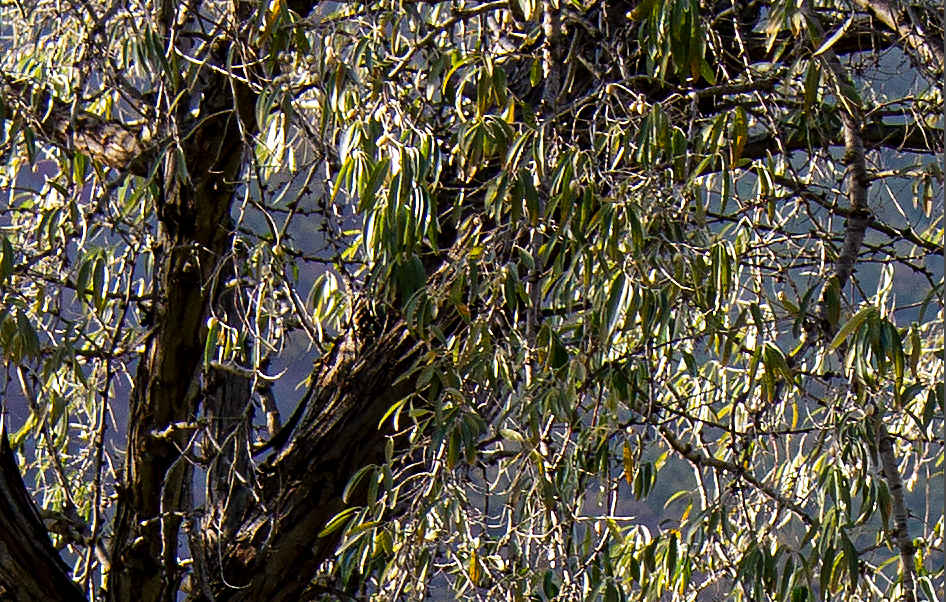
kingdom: Plantae
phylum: Tracheophyta
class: Magnoliopsida
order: Rosales
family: Elaeagnaceae
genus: Elaeagnus
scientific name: Elaeagnus angustifolia
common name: Russian olive
